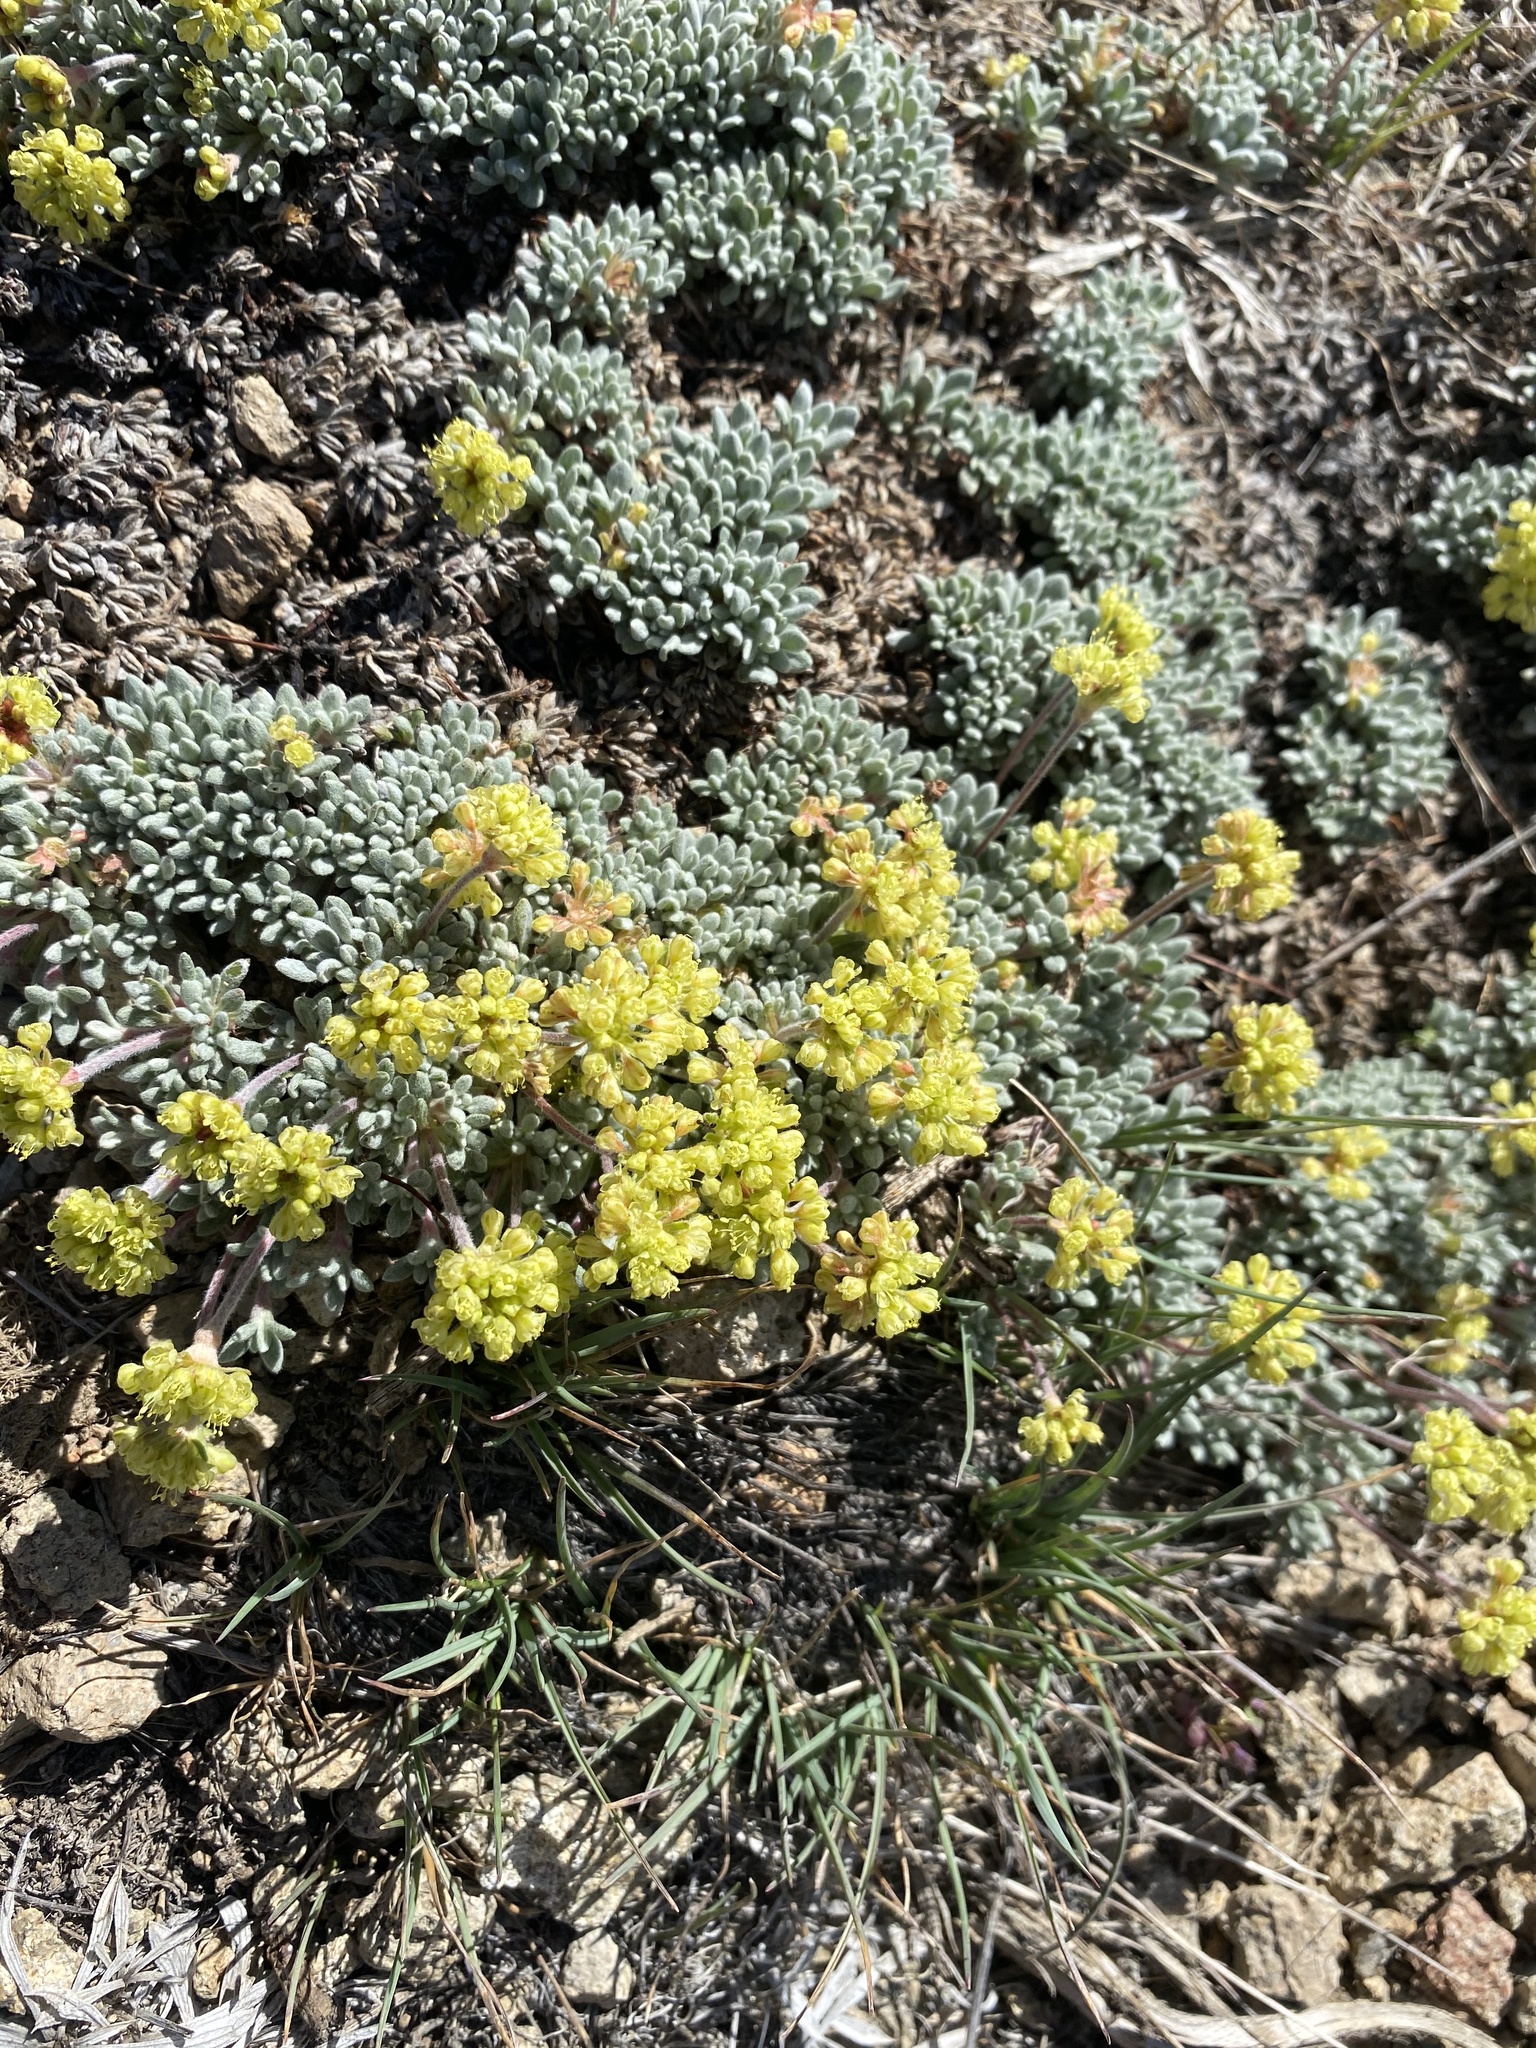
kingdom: Plantae
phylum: Tracheophyta
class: Magnoliopsida
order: Caryophyllales
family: Polygonaceae
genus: Eriogonum
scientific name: Eriogonum caespitosum
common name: Matted wild buckwheat
